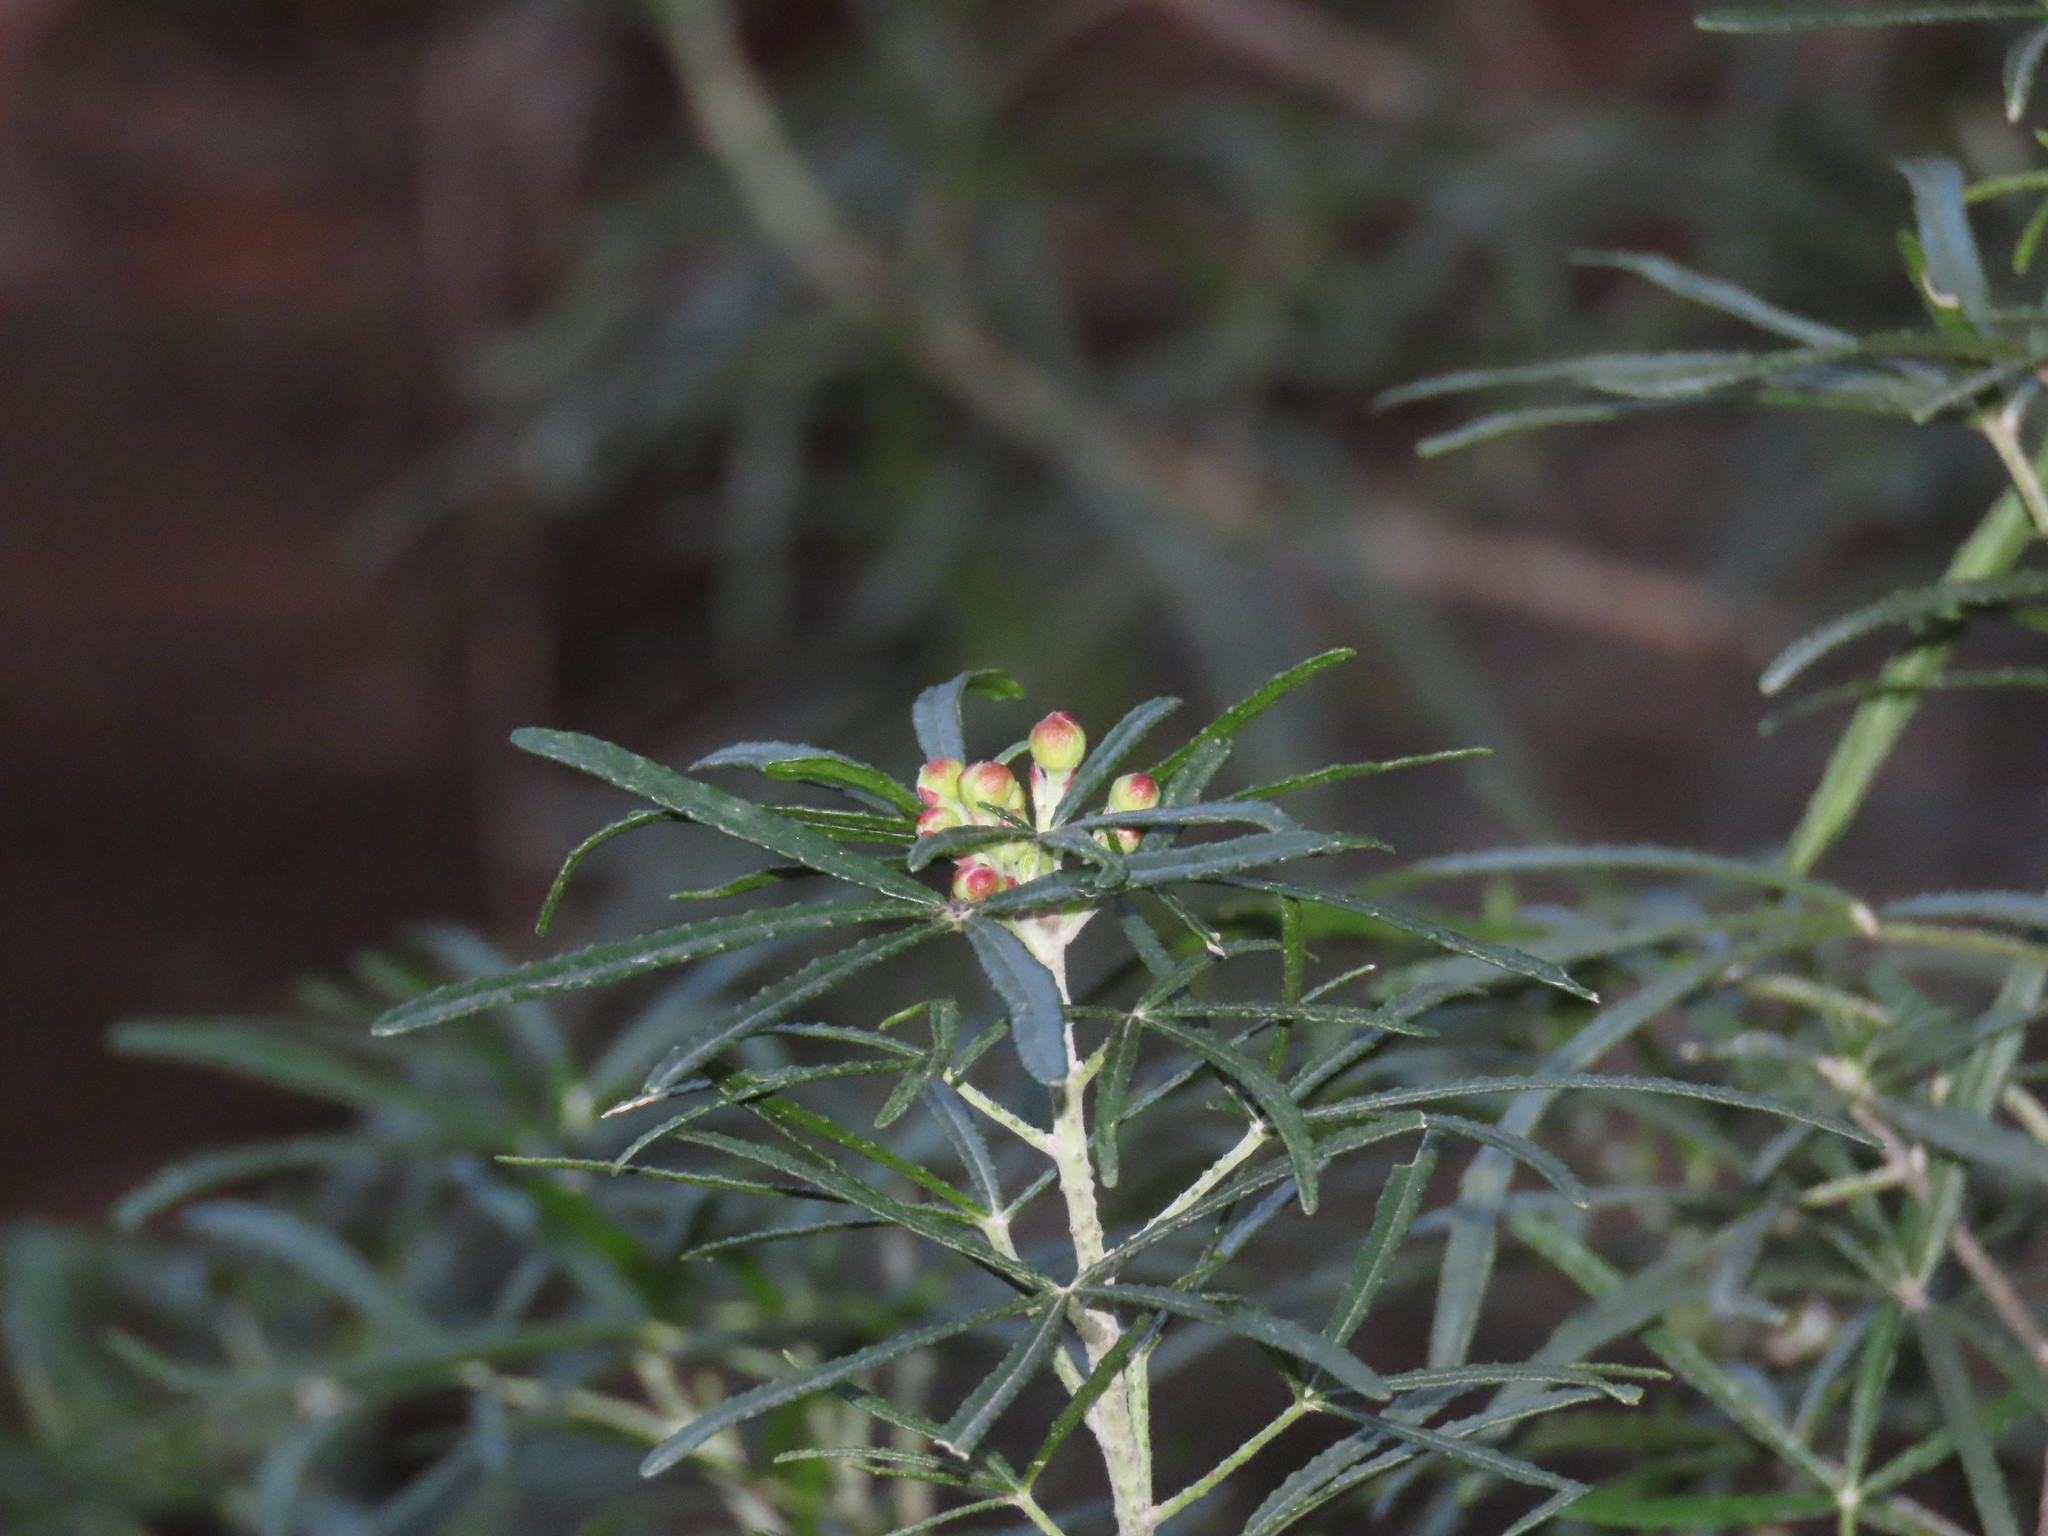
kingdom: Plantae
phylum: Tracheophyta
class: Magnoliopsida
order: Sapindales
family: Rutaceae
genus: Choisya
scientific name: Choisya dumosa
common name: Mexican-orange
